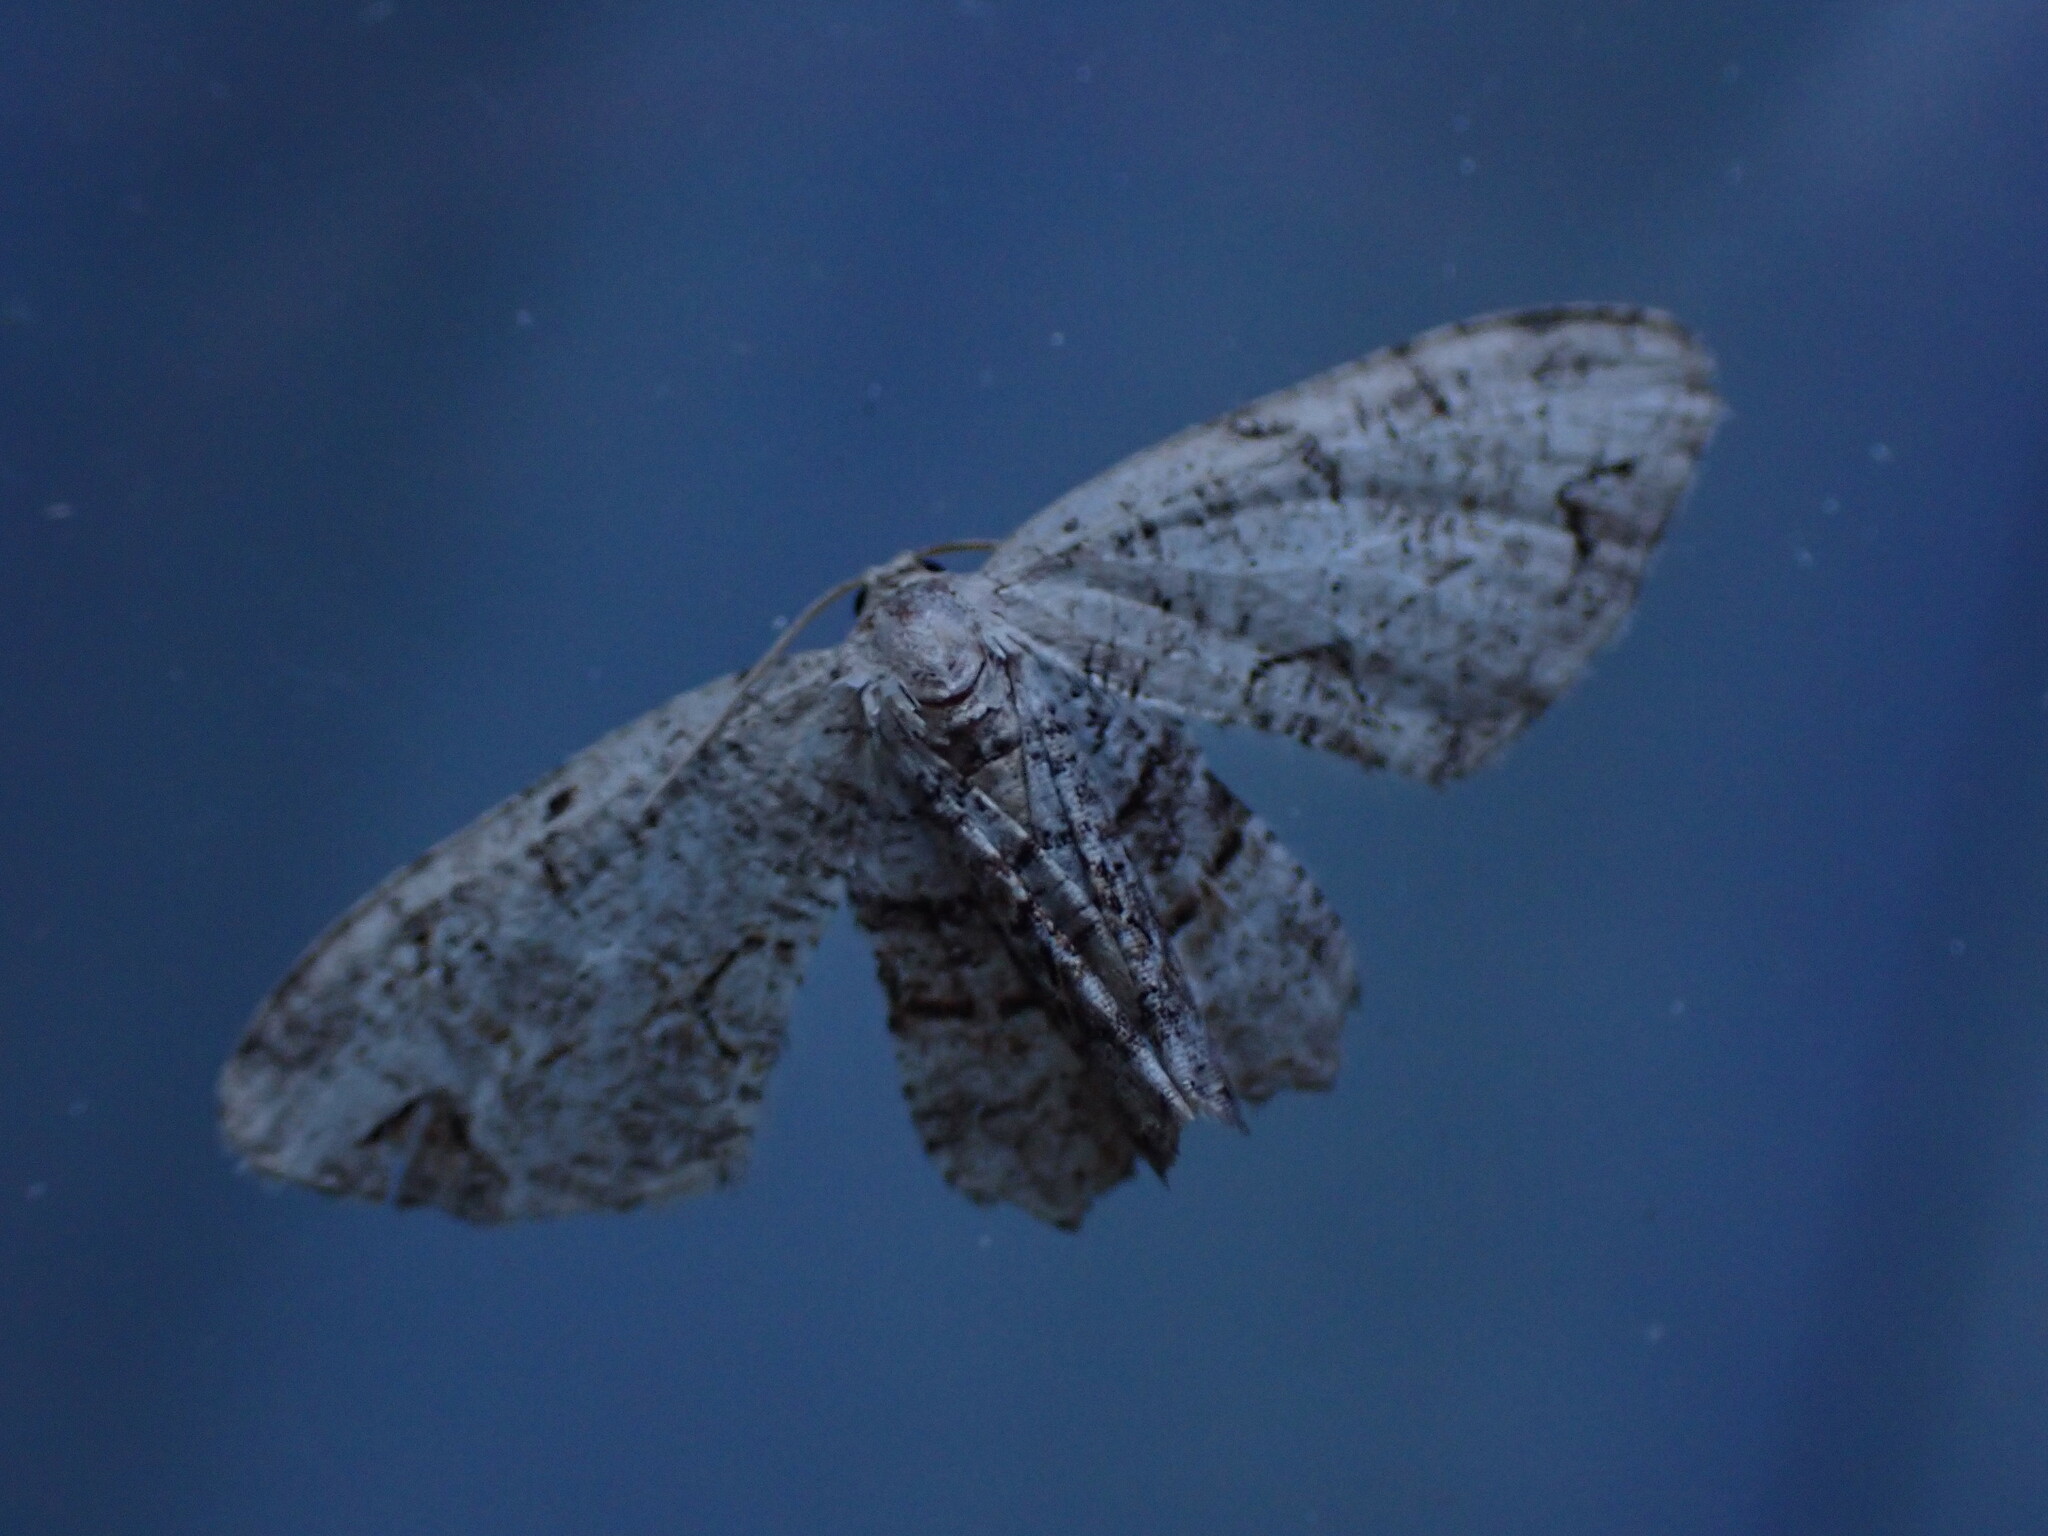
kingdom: Animalia
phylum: Arthropoda
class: Insecta
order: Lepidoptera
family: Uraniidae
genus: Epiplema
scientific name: Epiplema Callizzia amorata
